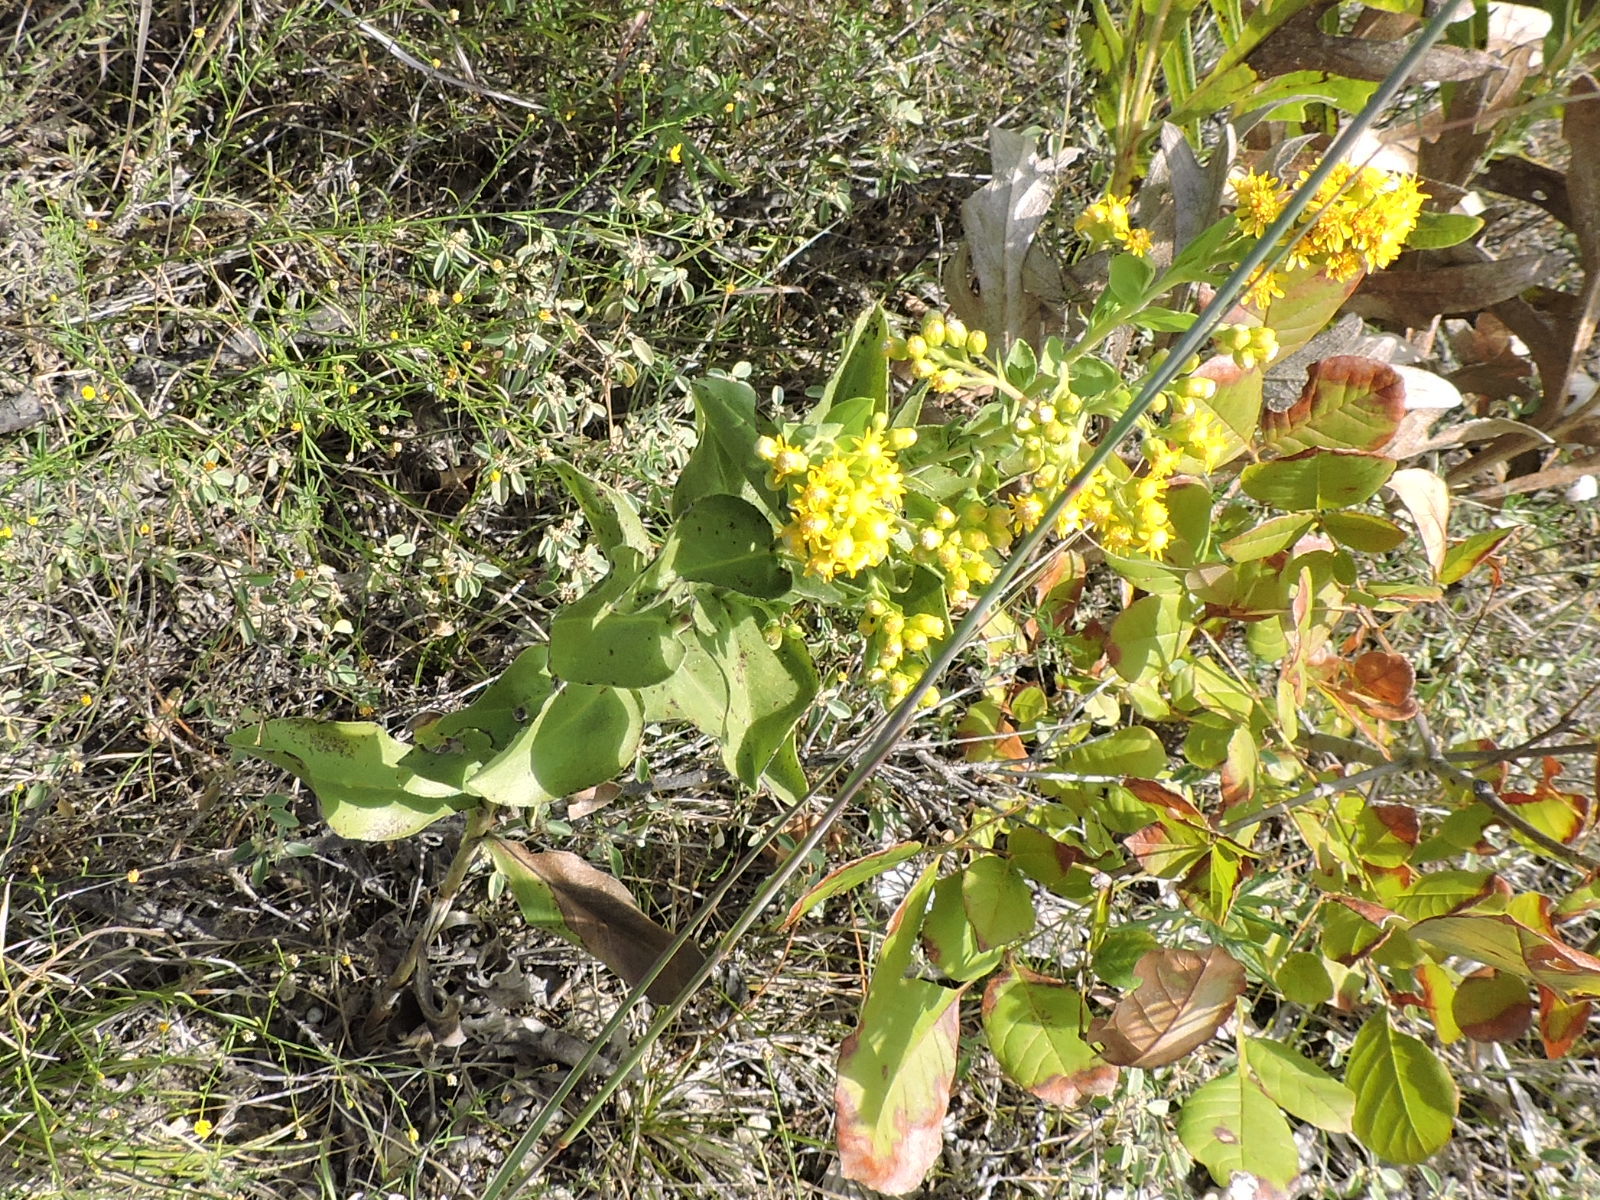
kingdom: Plantae
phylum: Tracheophyta
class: Magnoliopsida
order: Asterales
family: Asteraceae
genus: Solidago
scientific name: Solidago rigida
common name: Rigid goldenrod
